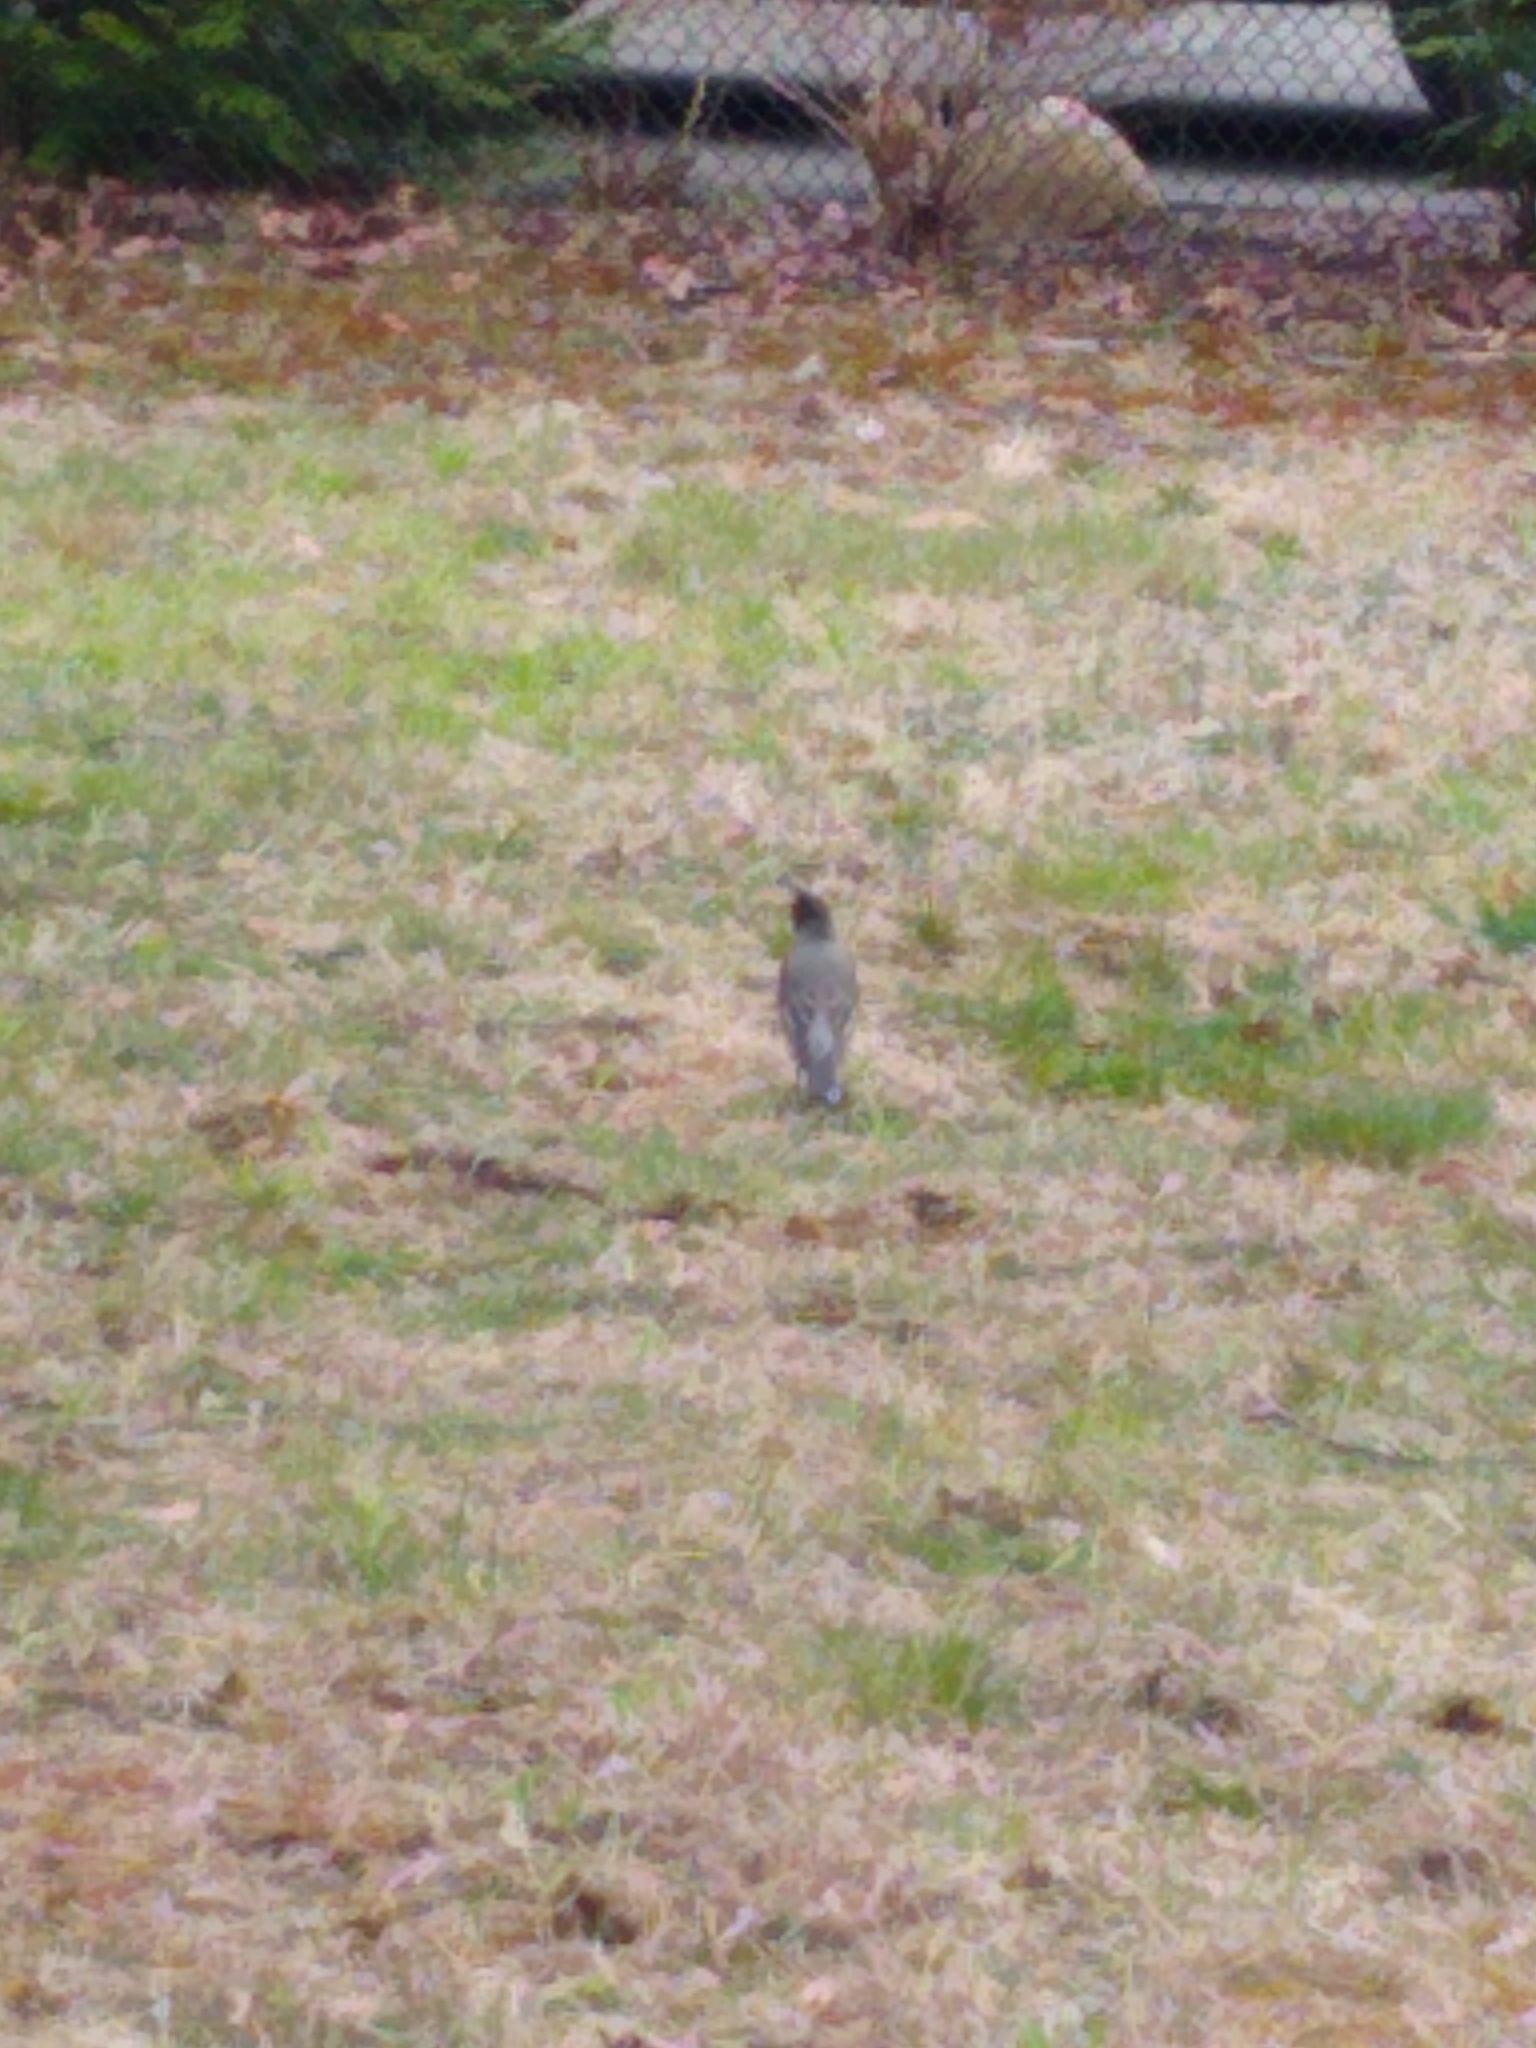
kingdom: Animalia
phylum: Chordata
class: Aves
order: Passeriformes
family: Turdidae
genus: Turdus
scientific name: Turdus migratorius
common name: American robin
